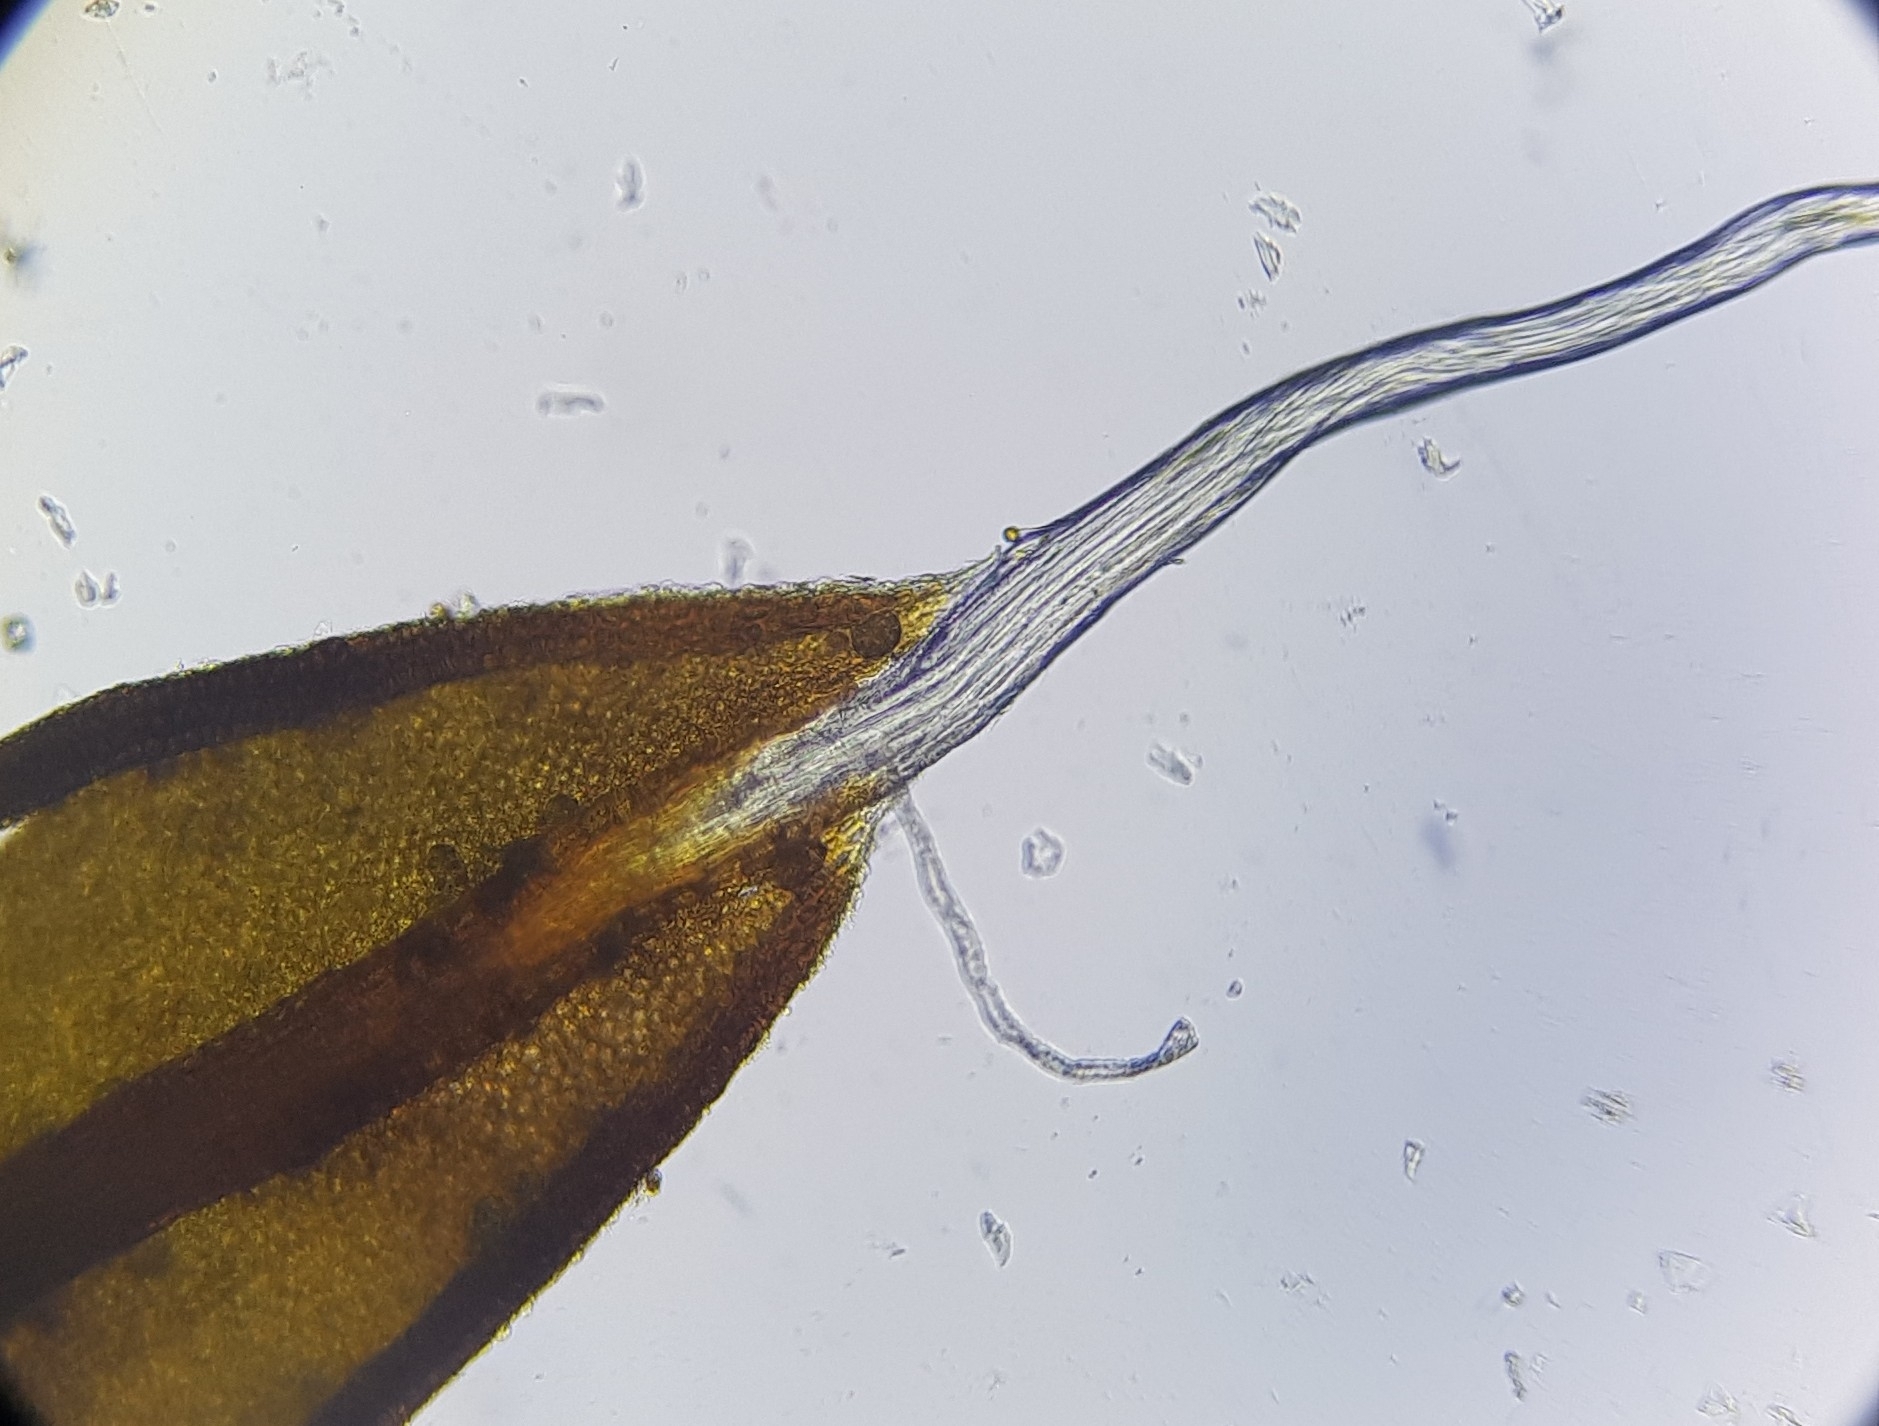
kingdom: Plantae
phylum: Bryophyta
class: Bryopsida
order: Pottiales
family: Pottiaceae
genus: Tortula
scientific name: Tortula muralis
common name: Wall screw-moss
